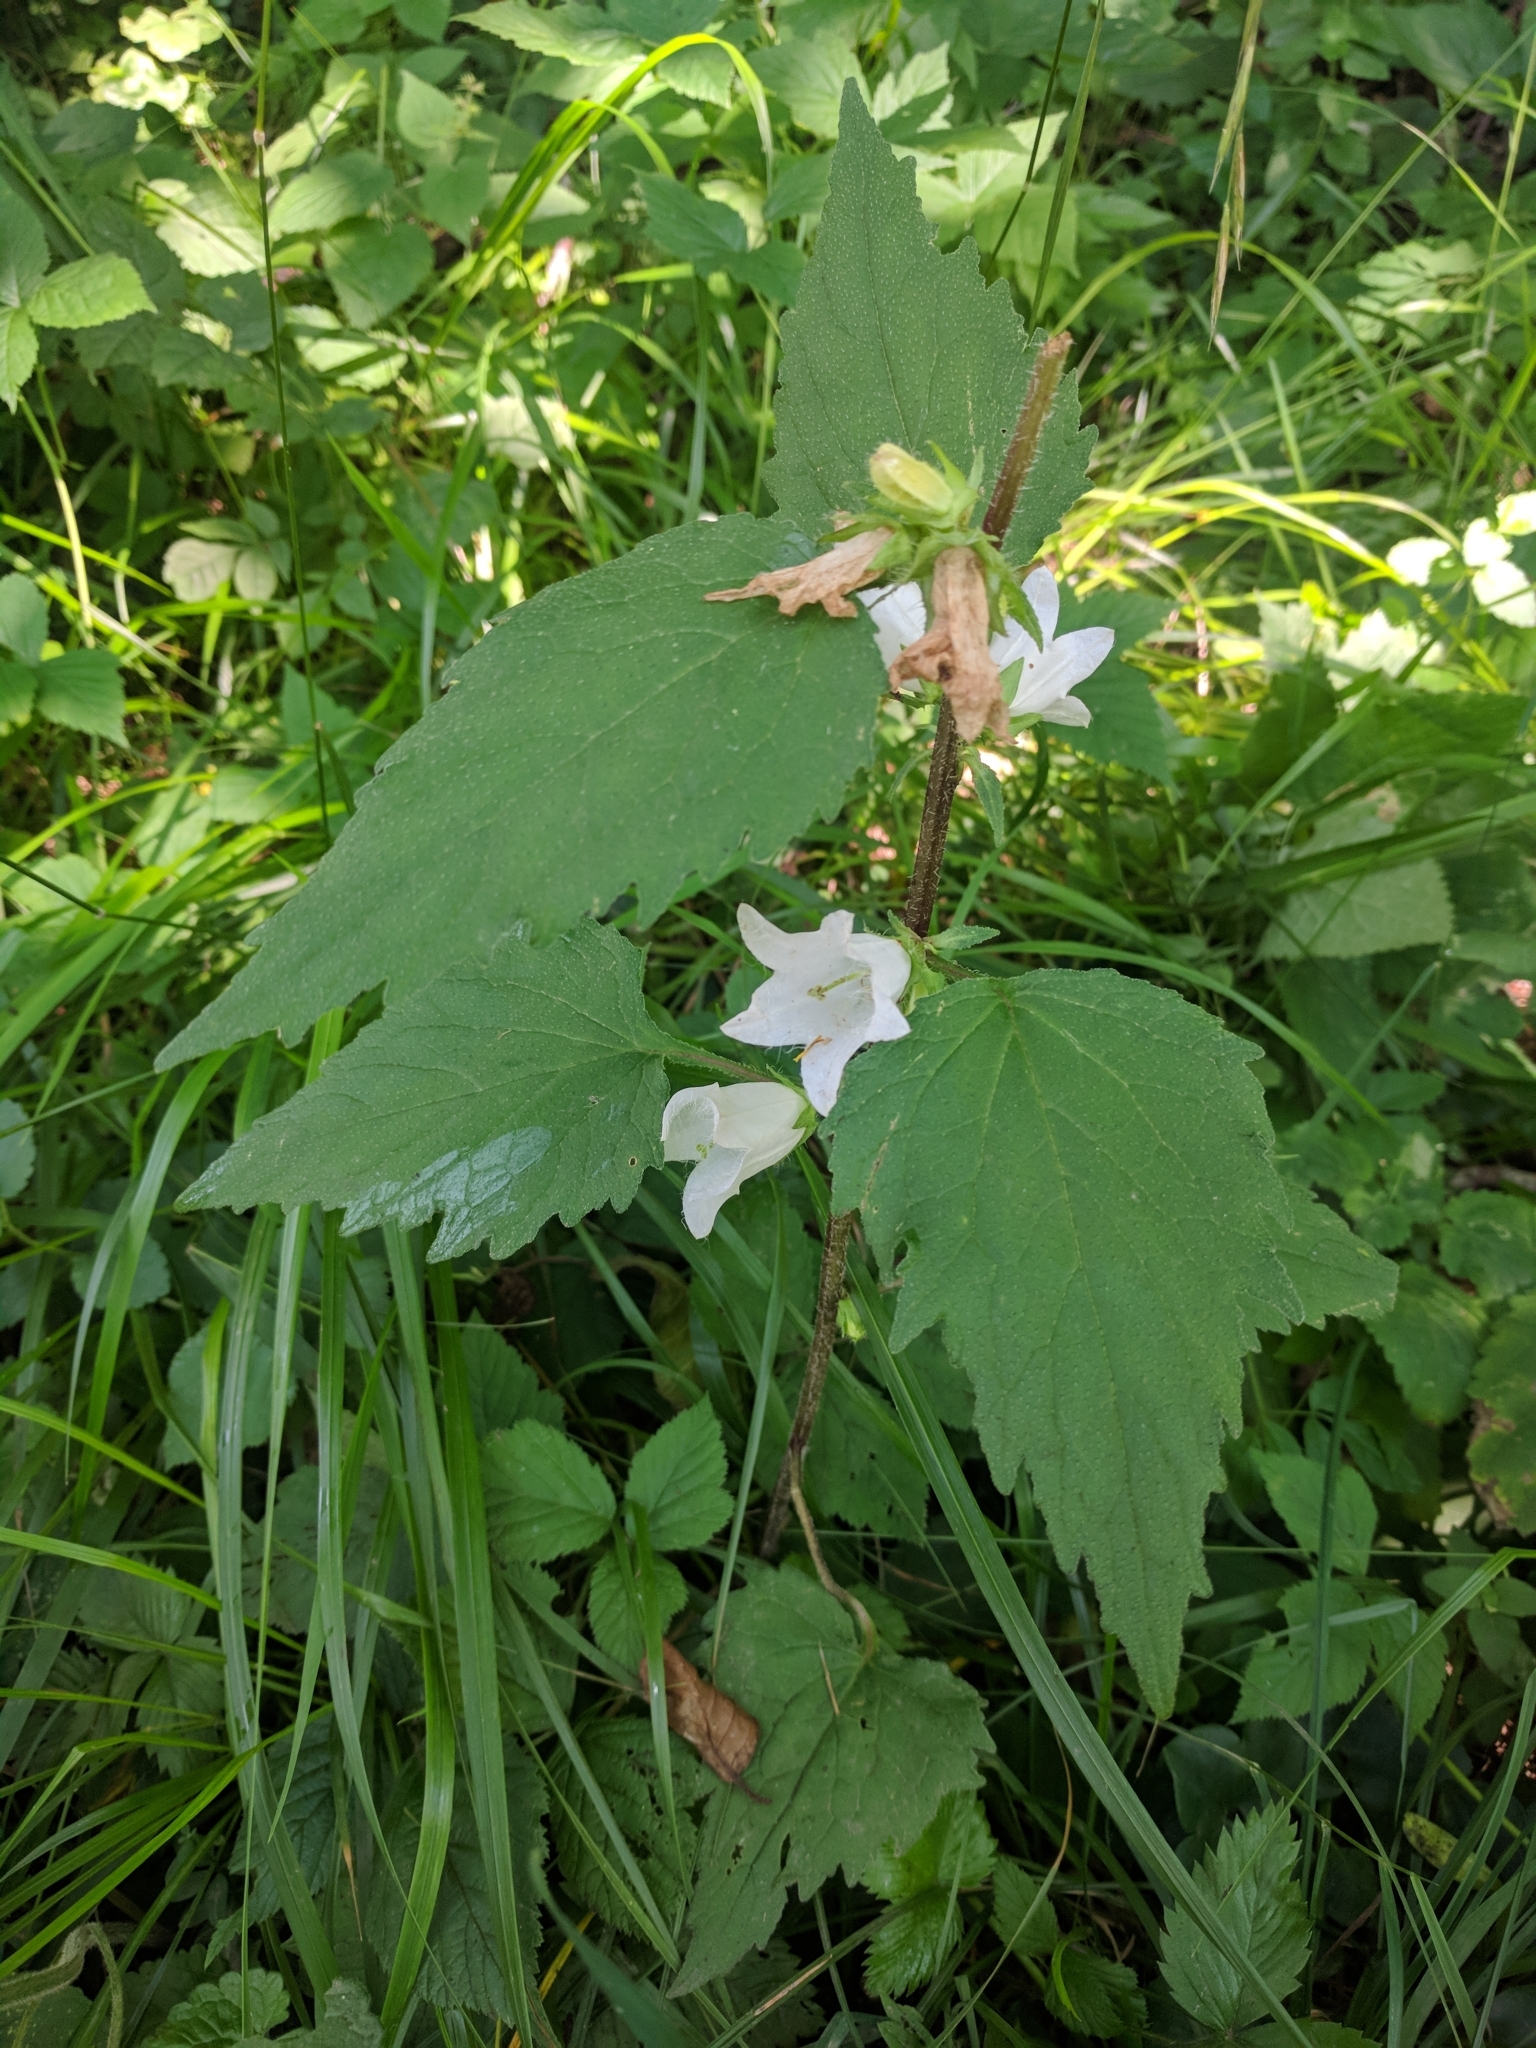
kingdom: Plantae
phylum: Tracheophyta
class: Magnoliopsida
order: Asterales
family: Campanulaceae
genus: Campanula
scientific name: Campanula trachelium
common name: Nettle-leaved bellflower
